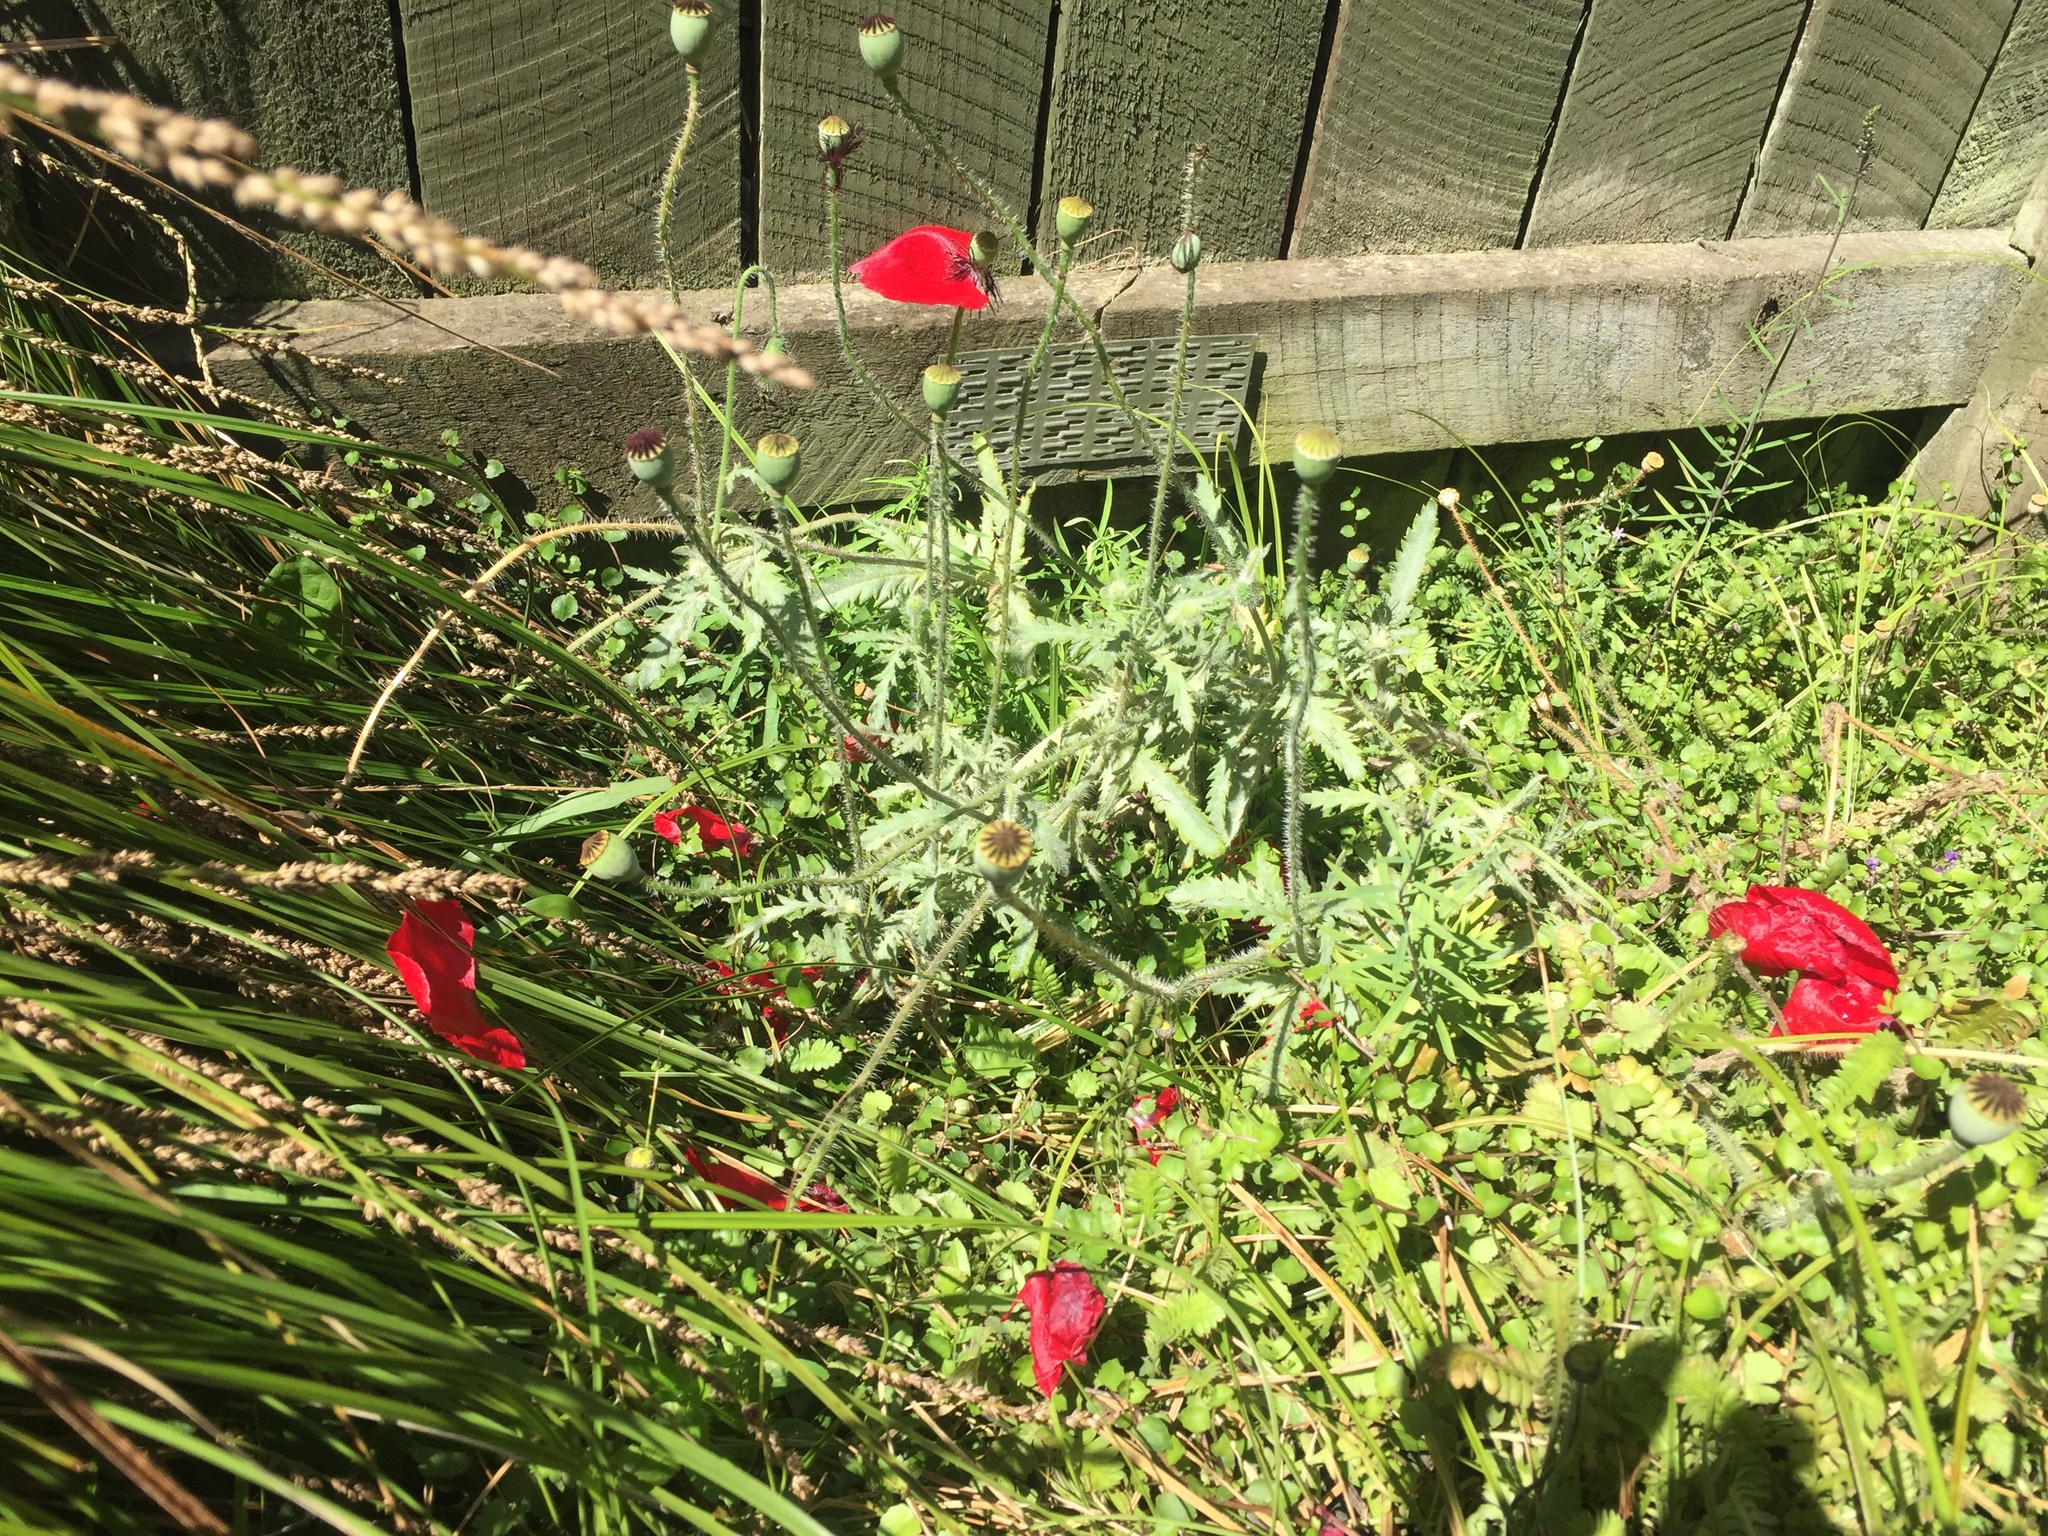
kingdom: Plantae
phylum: Tracheophyta
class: Magnoliopsida
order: Ranunculales
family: Papaveraceae
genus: Papaver
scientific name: Papaver rhoeas
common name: Corn poppy
